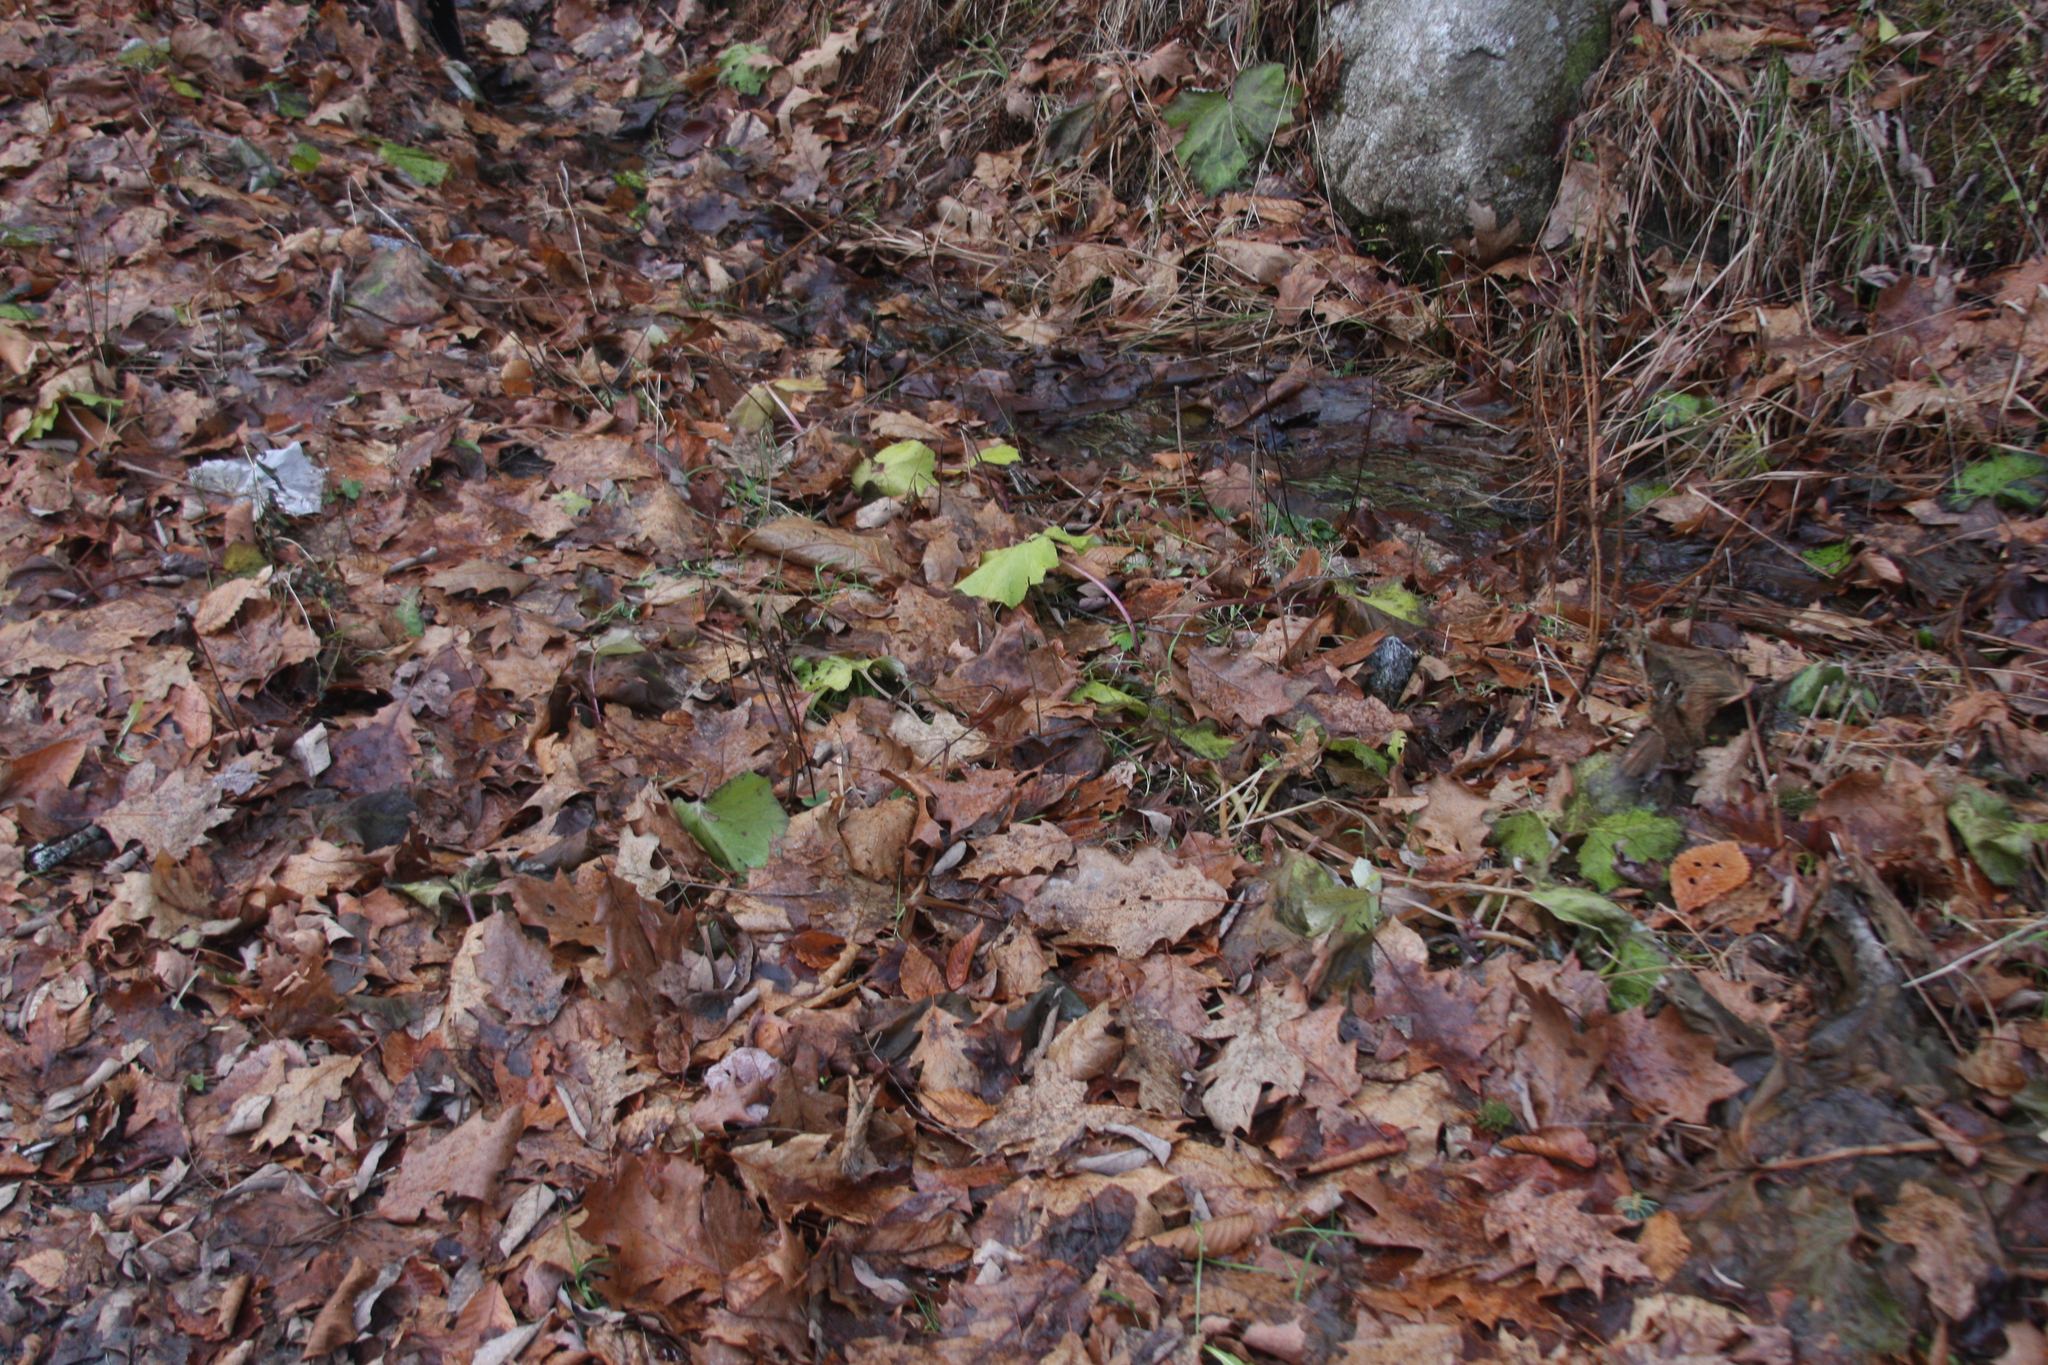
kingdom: Plantae
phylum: Tracheophyta
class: Magnoliopsida
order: Asterales
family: Asteraceae
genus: Tussilago
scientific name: Tussilago farfara
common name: Coltsfoot
